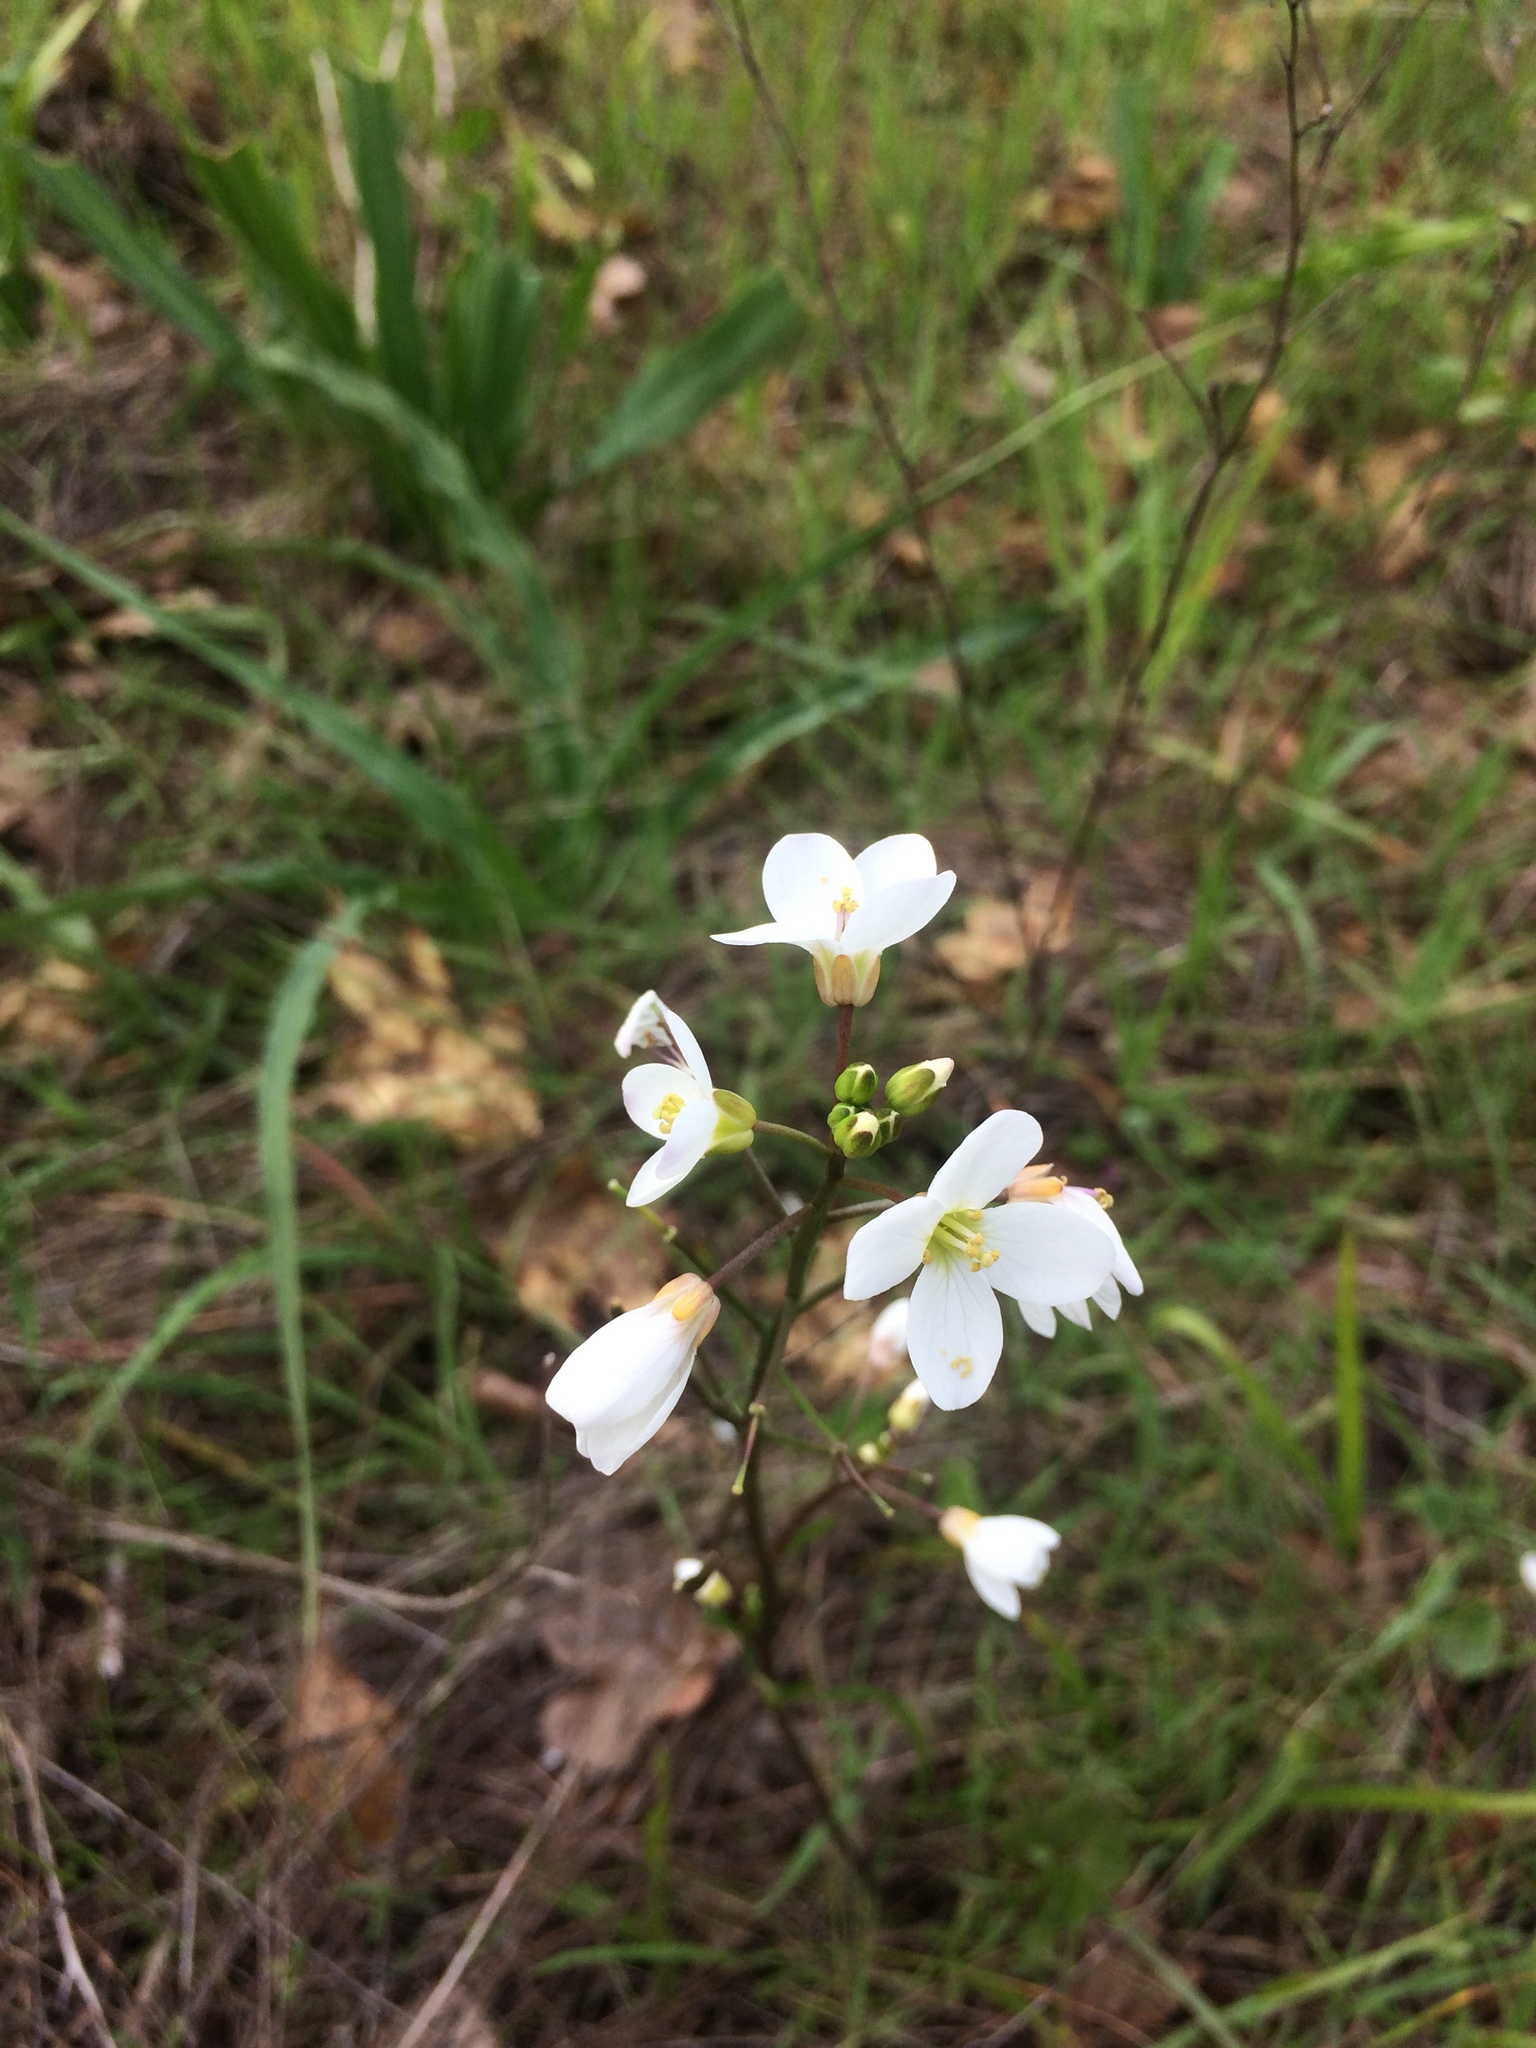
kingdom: Plantae
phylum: Tracheophyta
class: Magnoliopsida
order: Brassicales
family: Brassicaceae
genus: Cardamine
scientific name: Cardamine californica
